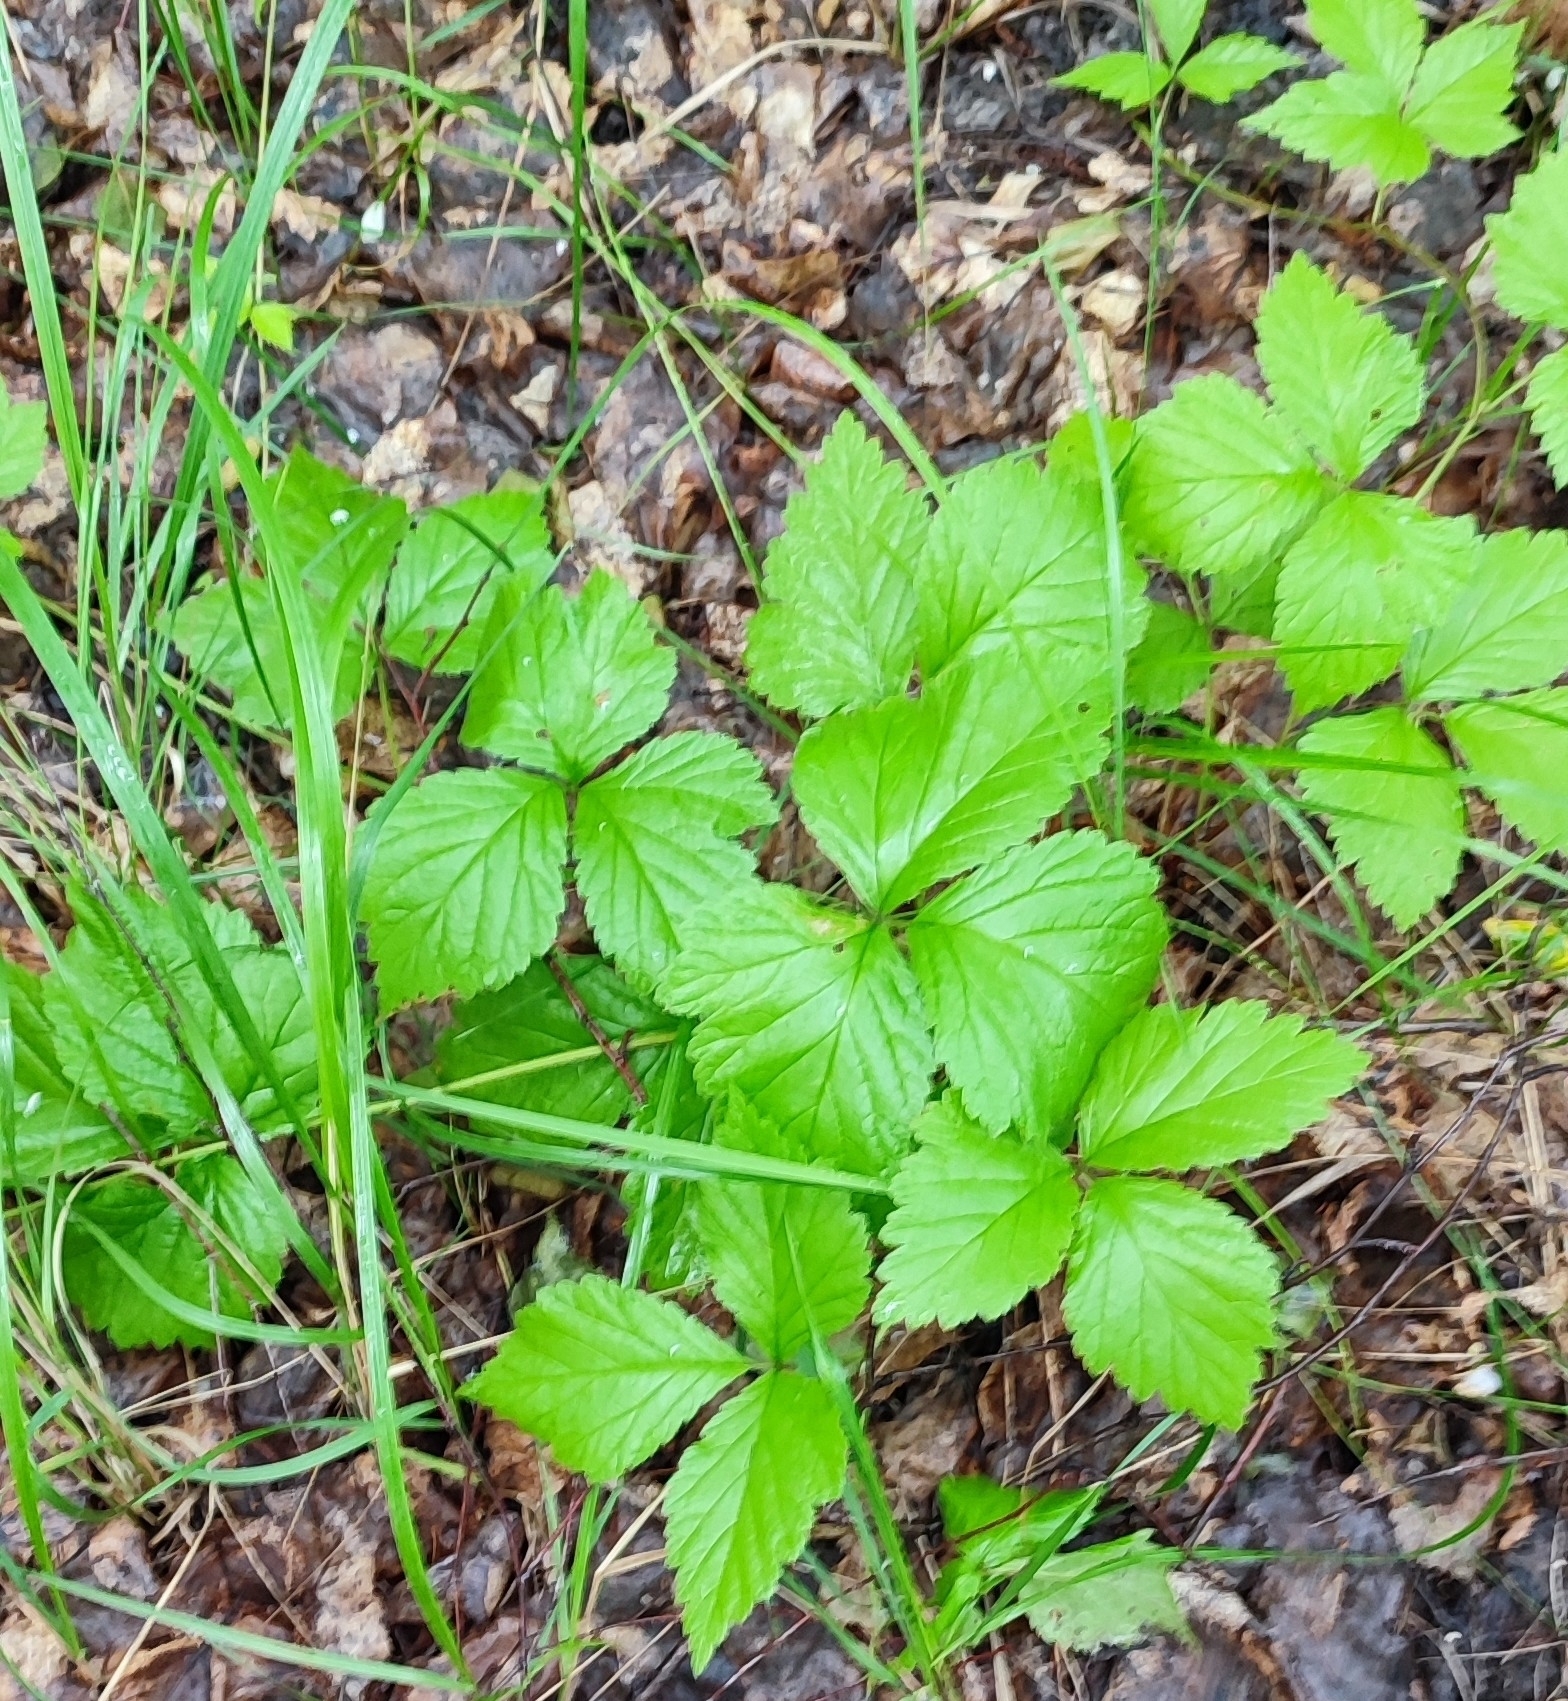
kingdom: Plantae
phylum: Tracheophyta
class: Magnoliopsida
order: Rosales
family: Rosaceae
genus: Rubus
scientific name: Rubus saxatilis
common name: Stone bramble
